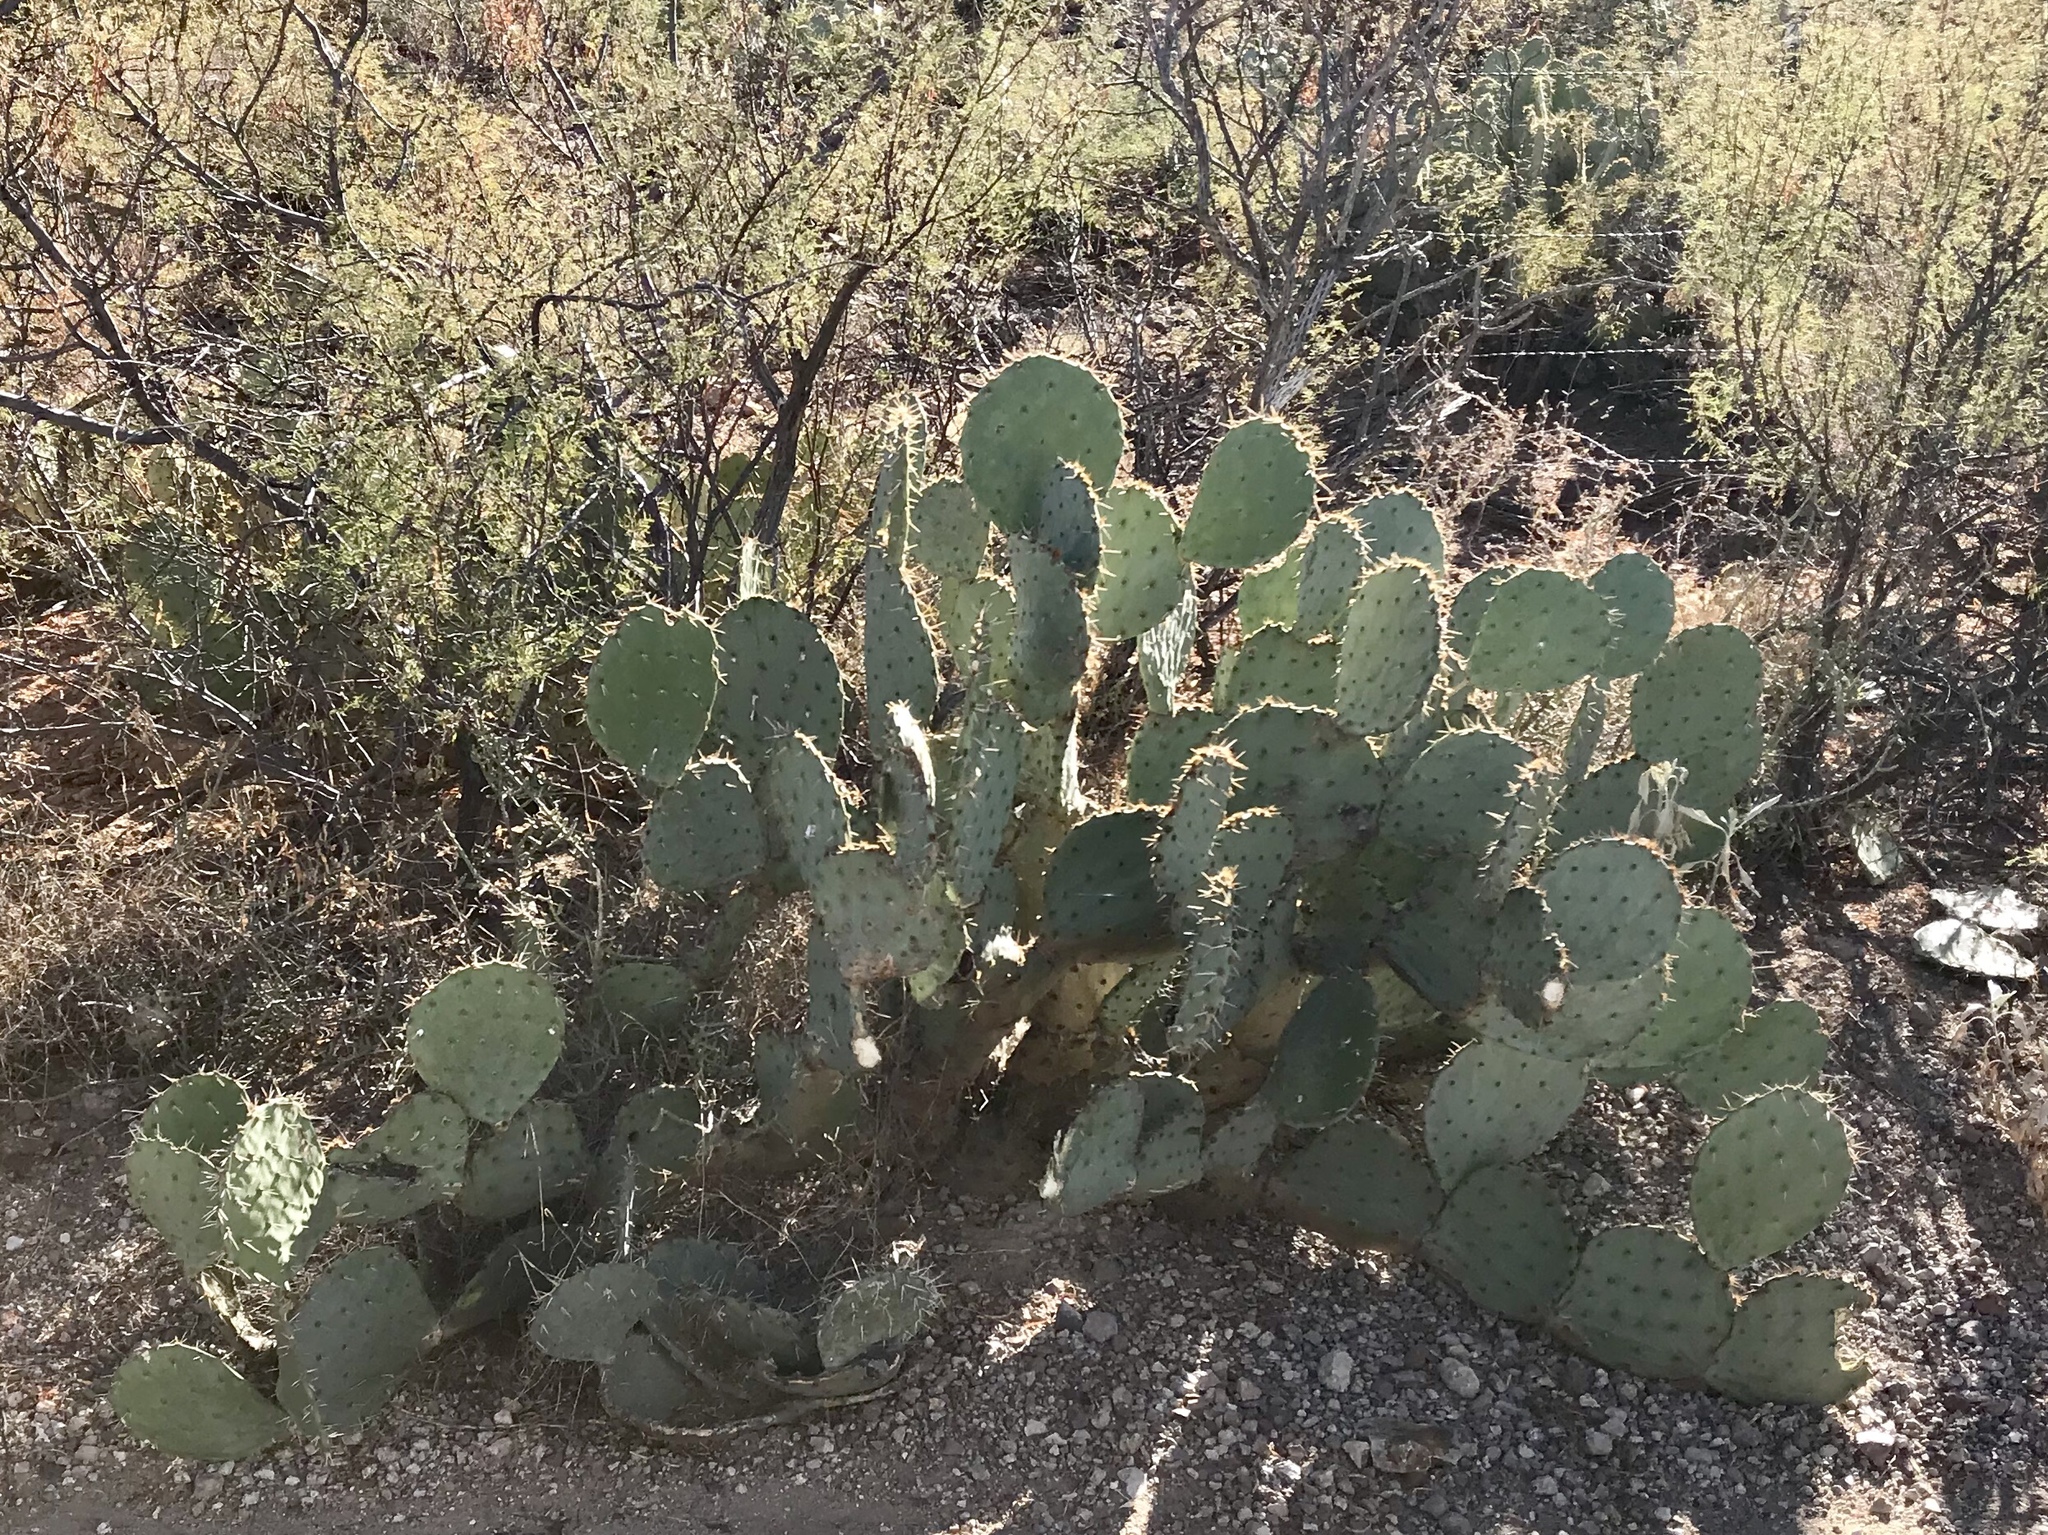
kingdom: Plantae
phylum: Tracheophyta
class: Magnoliopsida
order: Caryophyllales
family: Cactaceae
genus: Opuntia
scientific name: Opuntia engelmannii
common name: Cactus-apple
